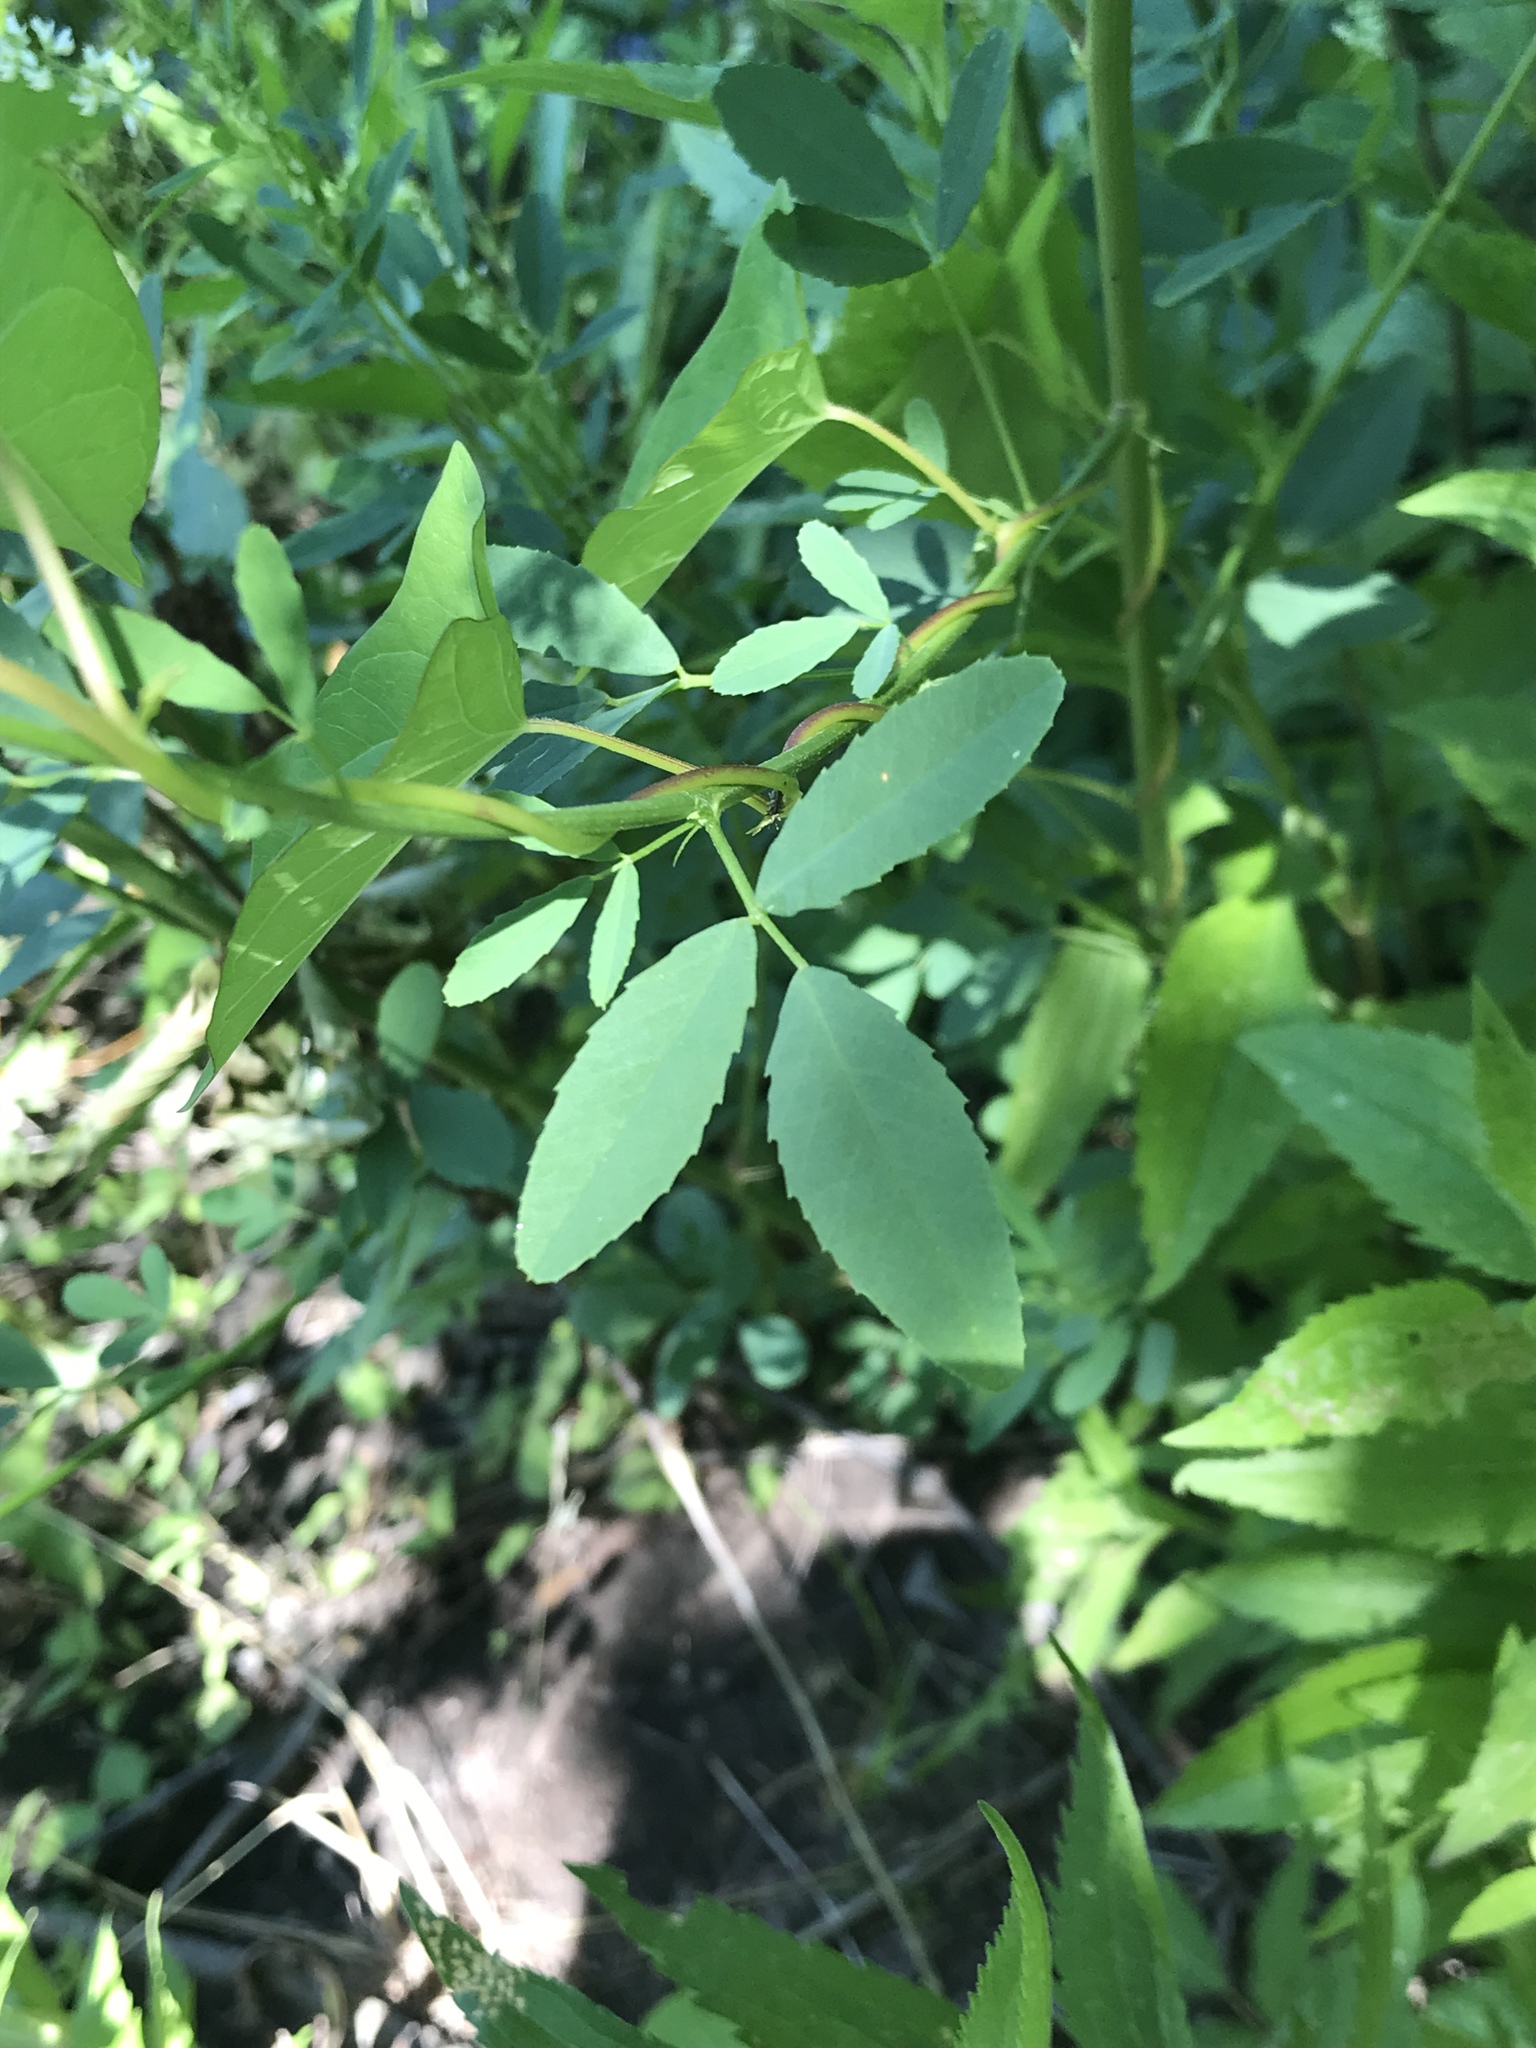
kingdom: Plantae
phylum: Tracheophyta
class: Magnoliopsida
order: Fabales
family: Fabaceae
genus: Melilotus
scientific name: Melilotus albus
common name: White melilot
